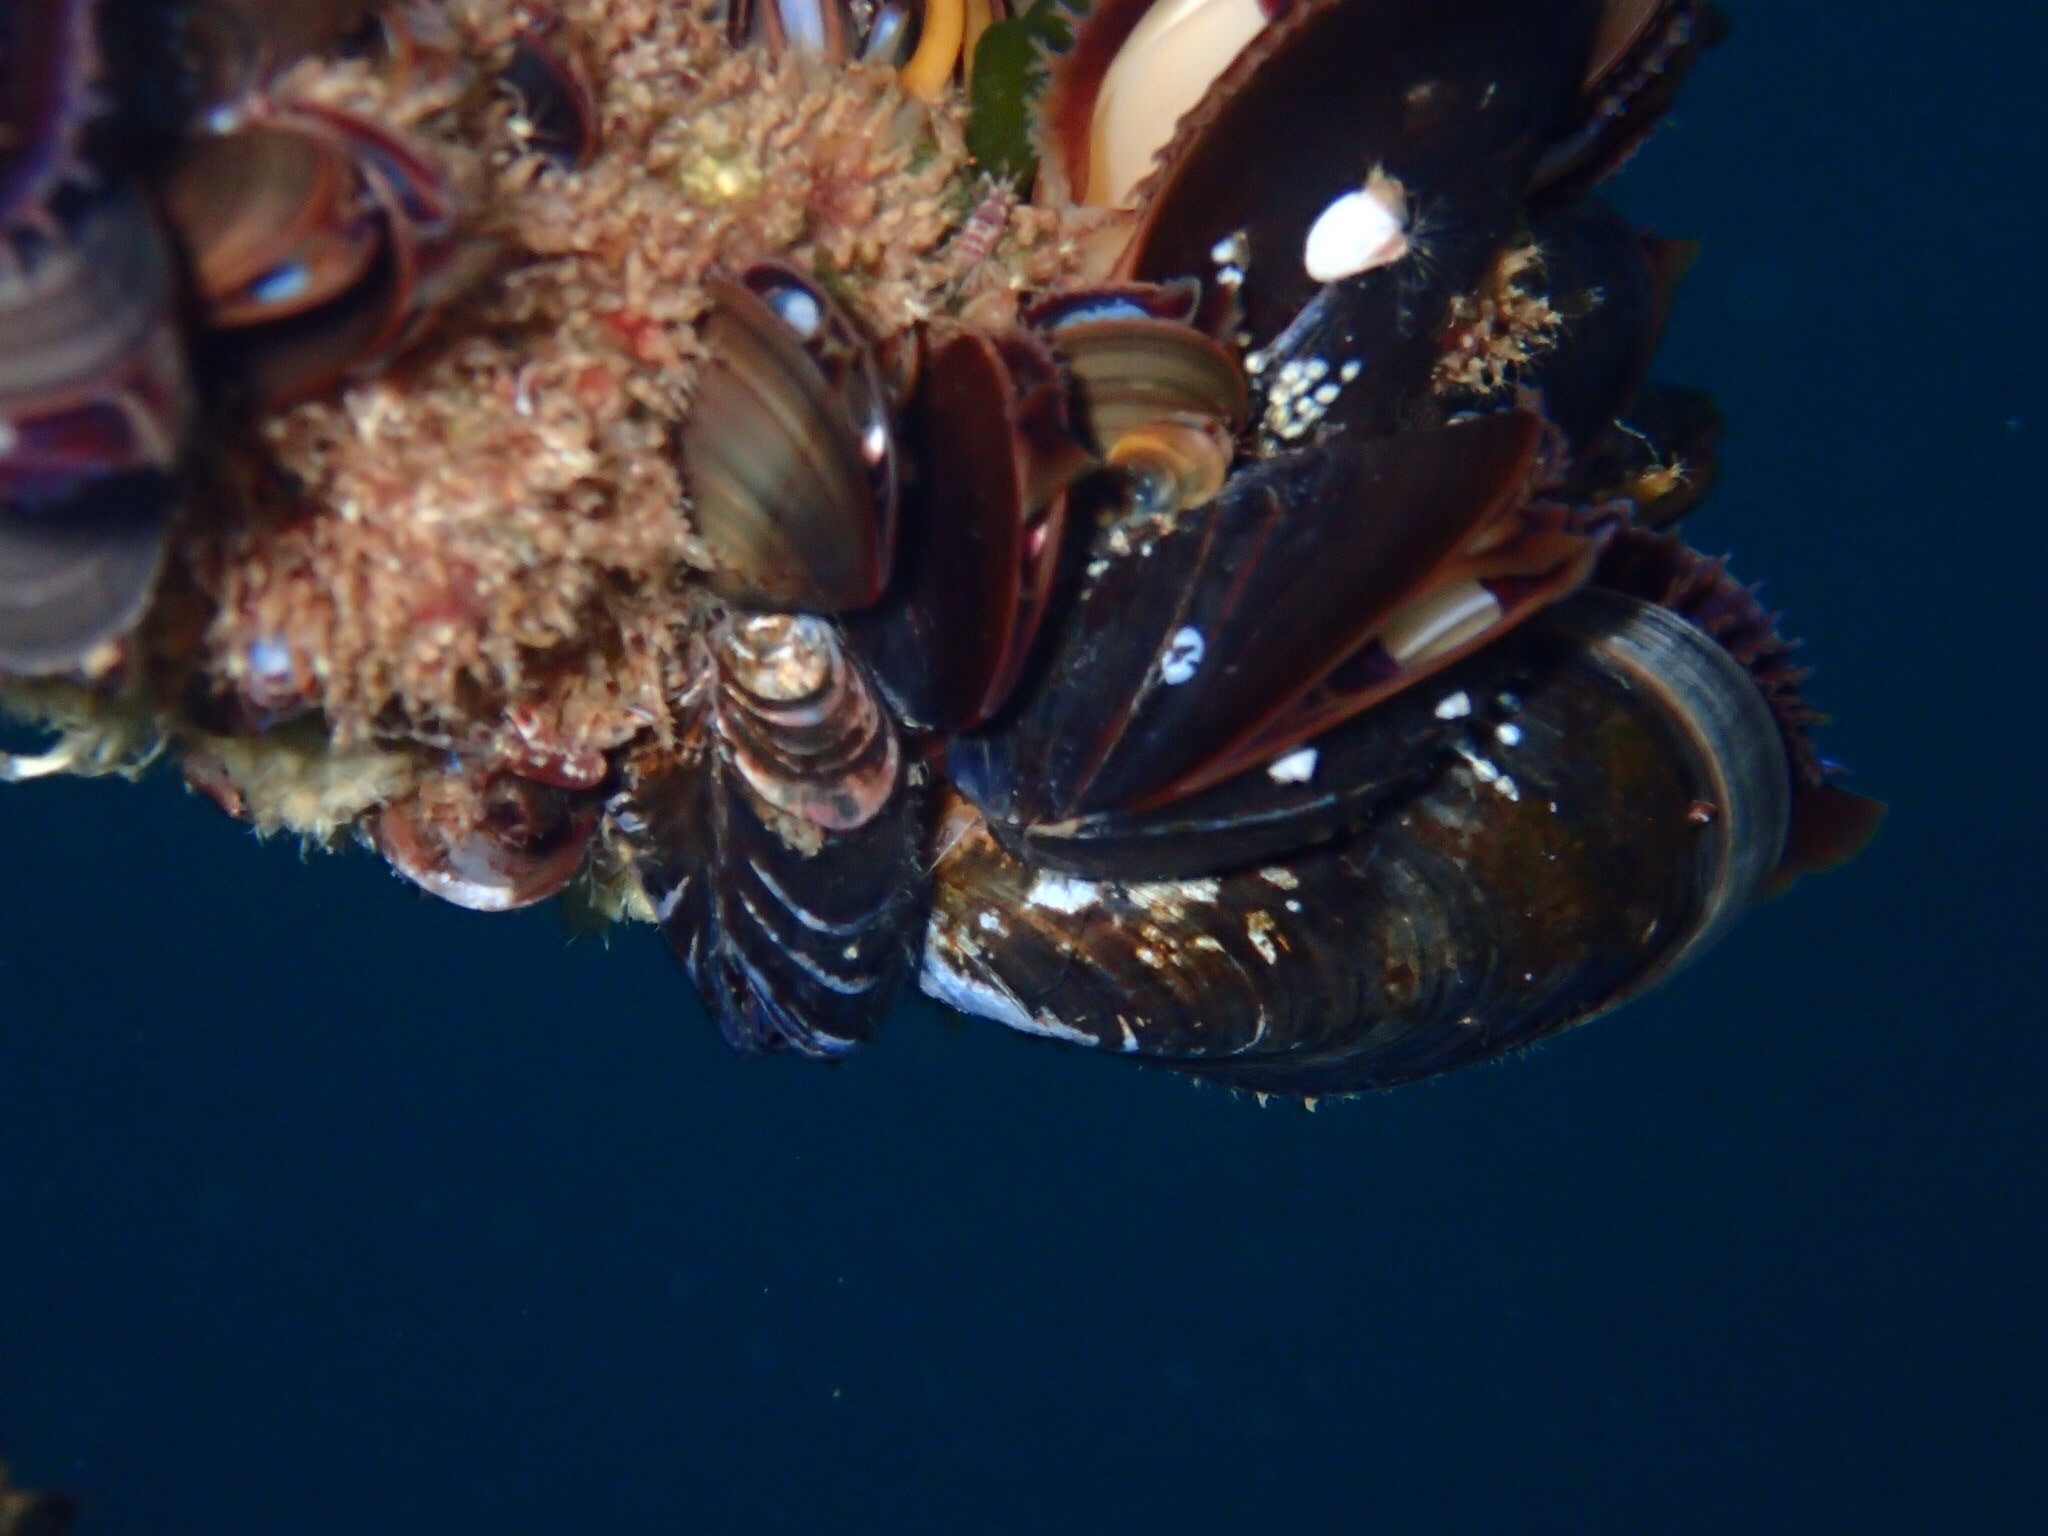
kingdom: Animalia
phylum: Mollusca
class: Bivalvia
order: Mytilida
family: Mytilidae
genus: Mytilus
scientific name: Mytilus edulis
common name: Blue mussel
